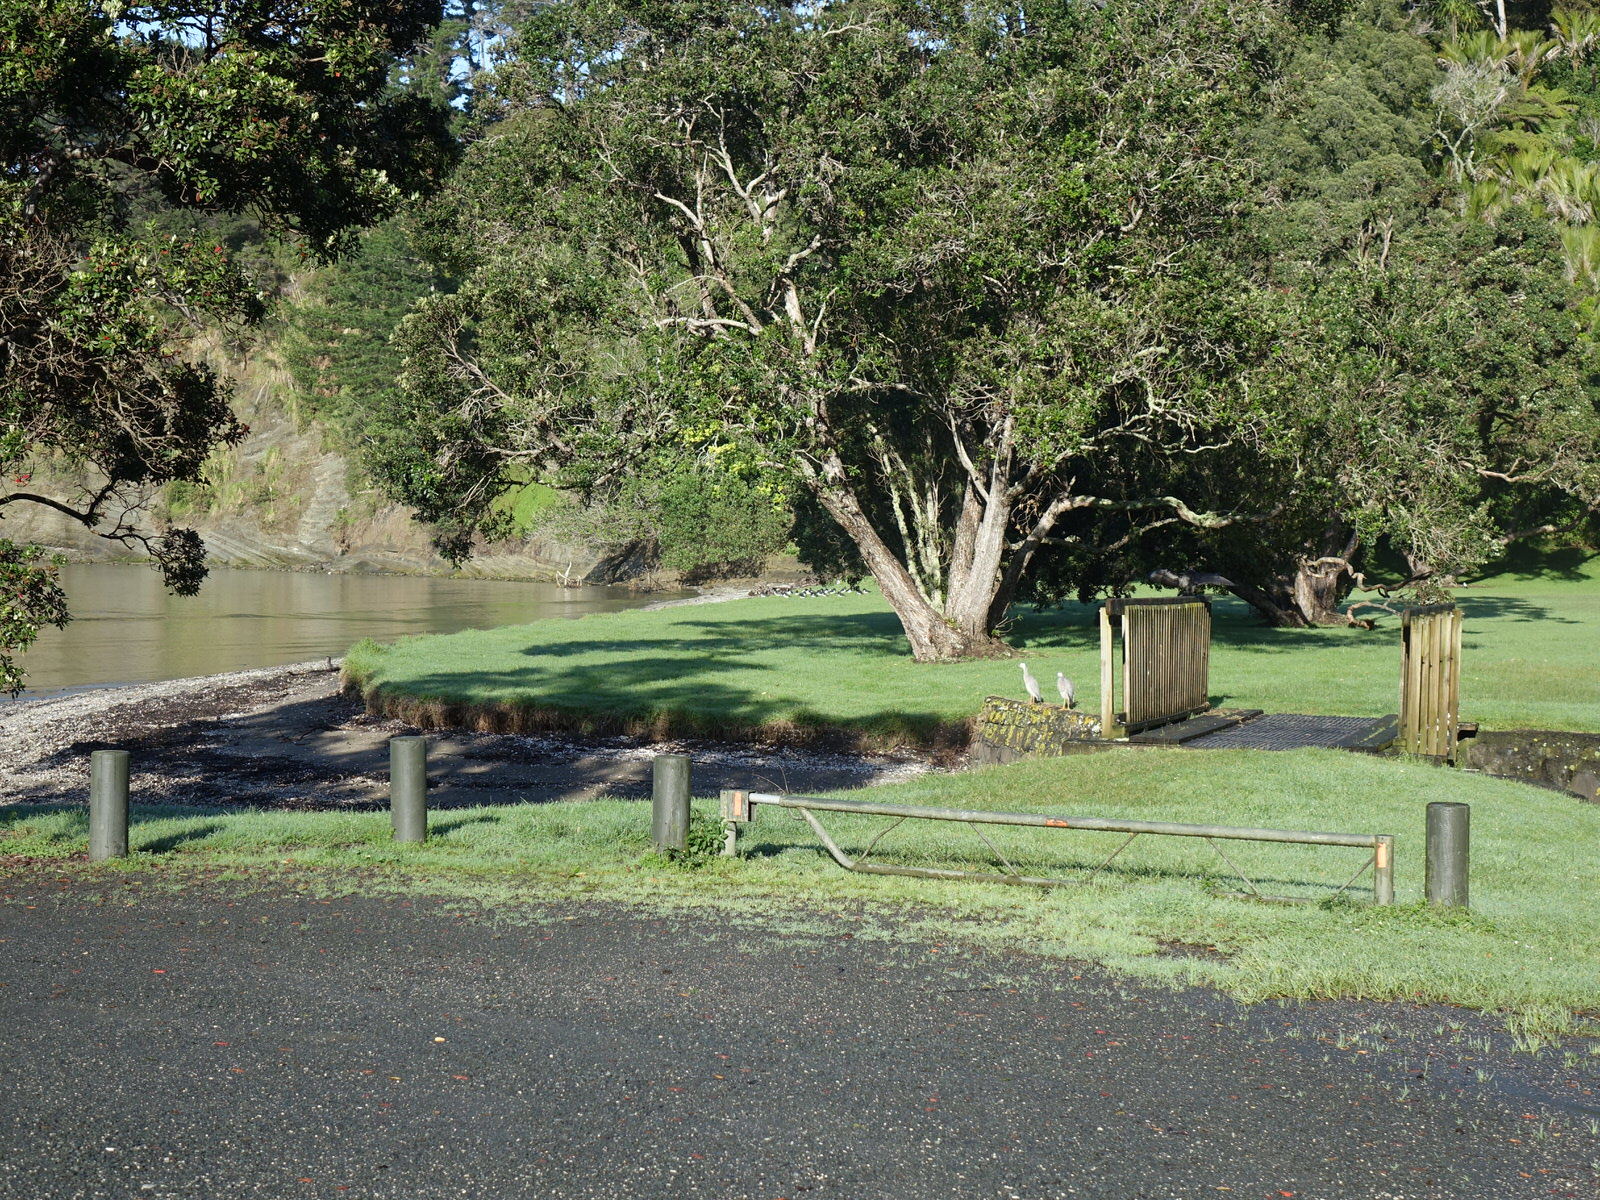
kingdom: Animalia
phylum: Chordata
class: Aves
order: Suliformes
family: Phalacrocoracidae
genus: Phalacrocorax
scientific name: Phalacrocorax sulcirostris
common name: Little black cormorant
